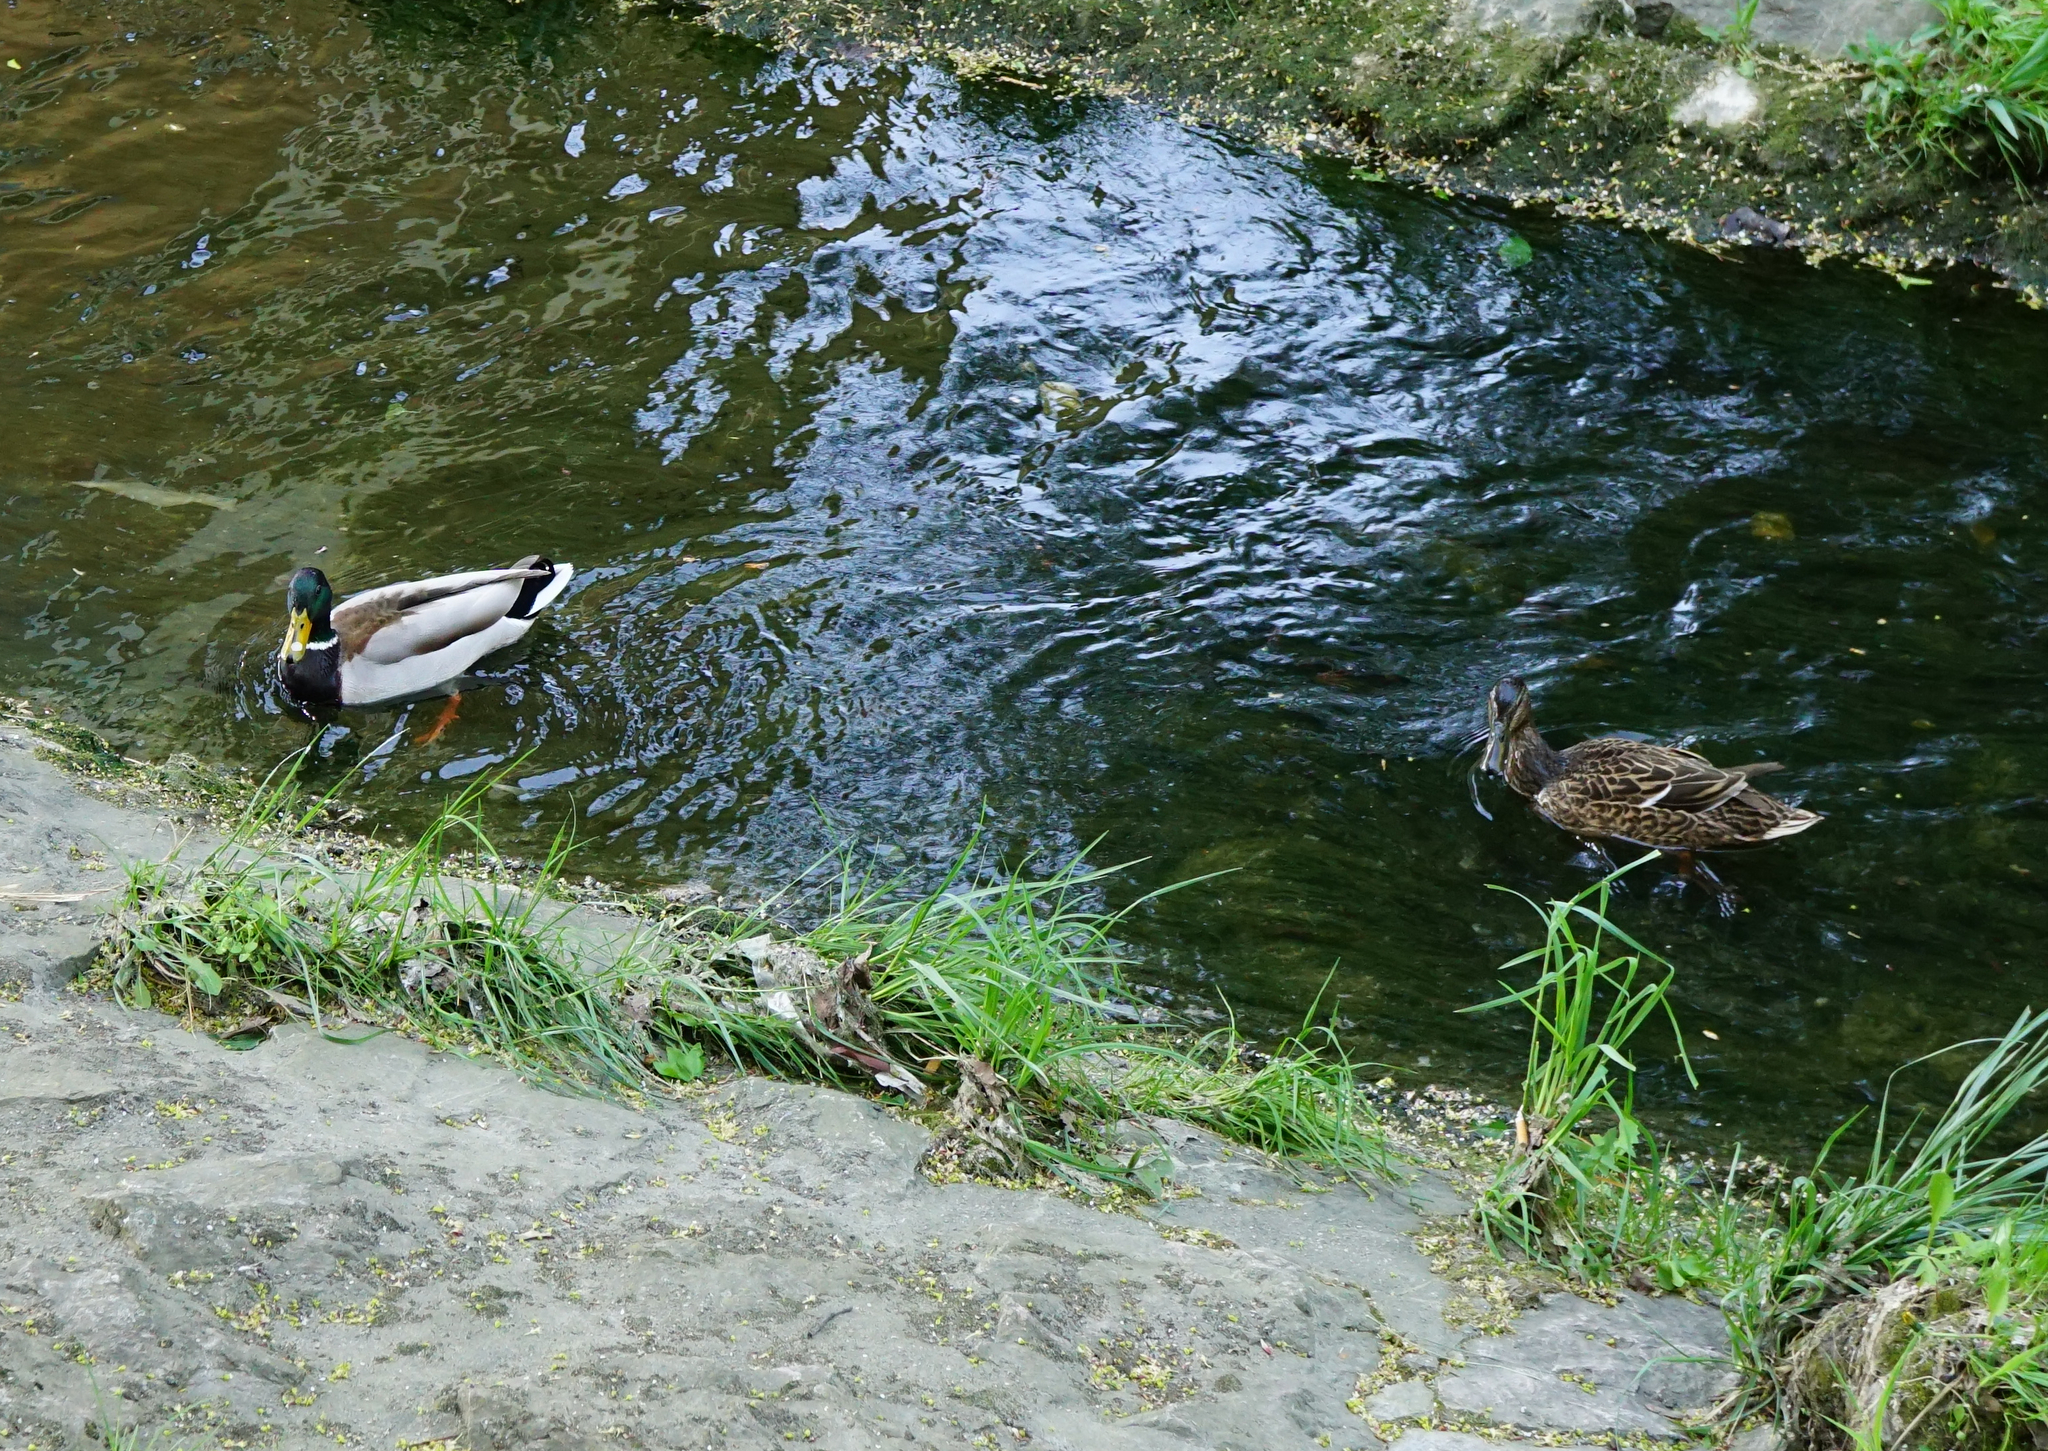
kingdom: Animalia
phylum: Chordata
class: Aves
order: Anseriformes
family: Anatidae
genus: Anas
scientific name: Anas platyrhynchos
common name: Mallard
